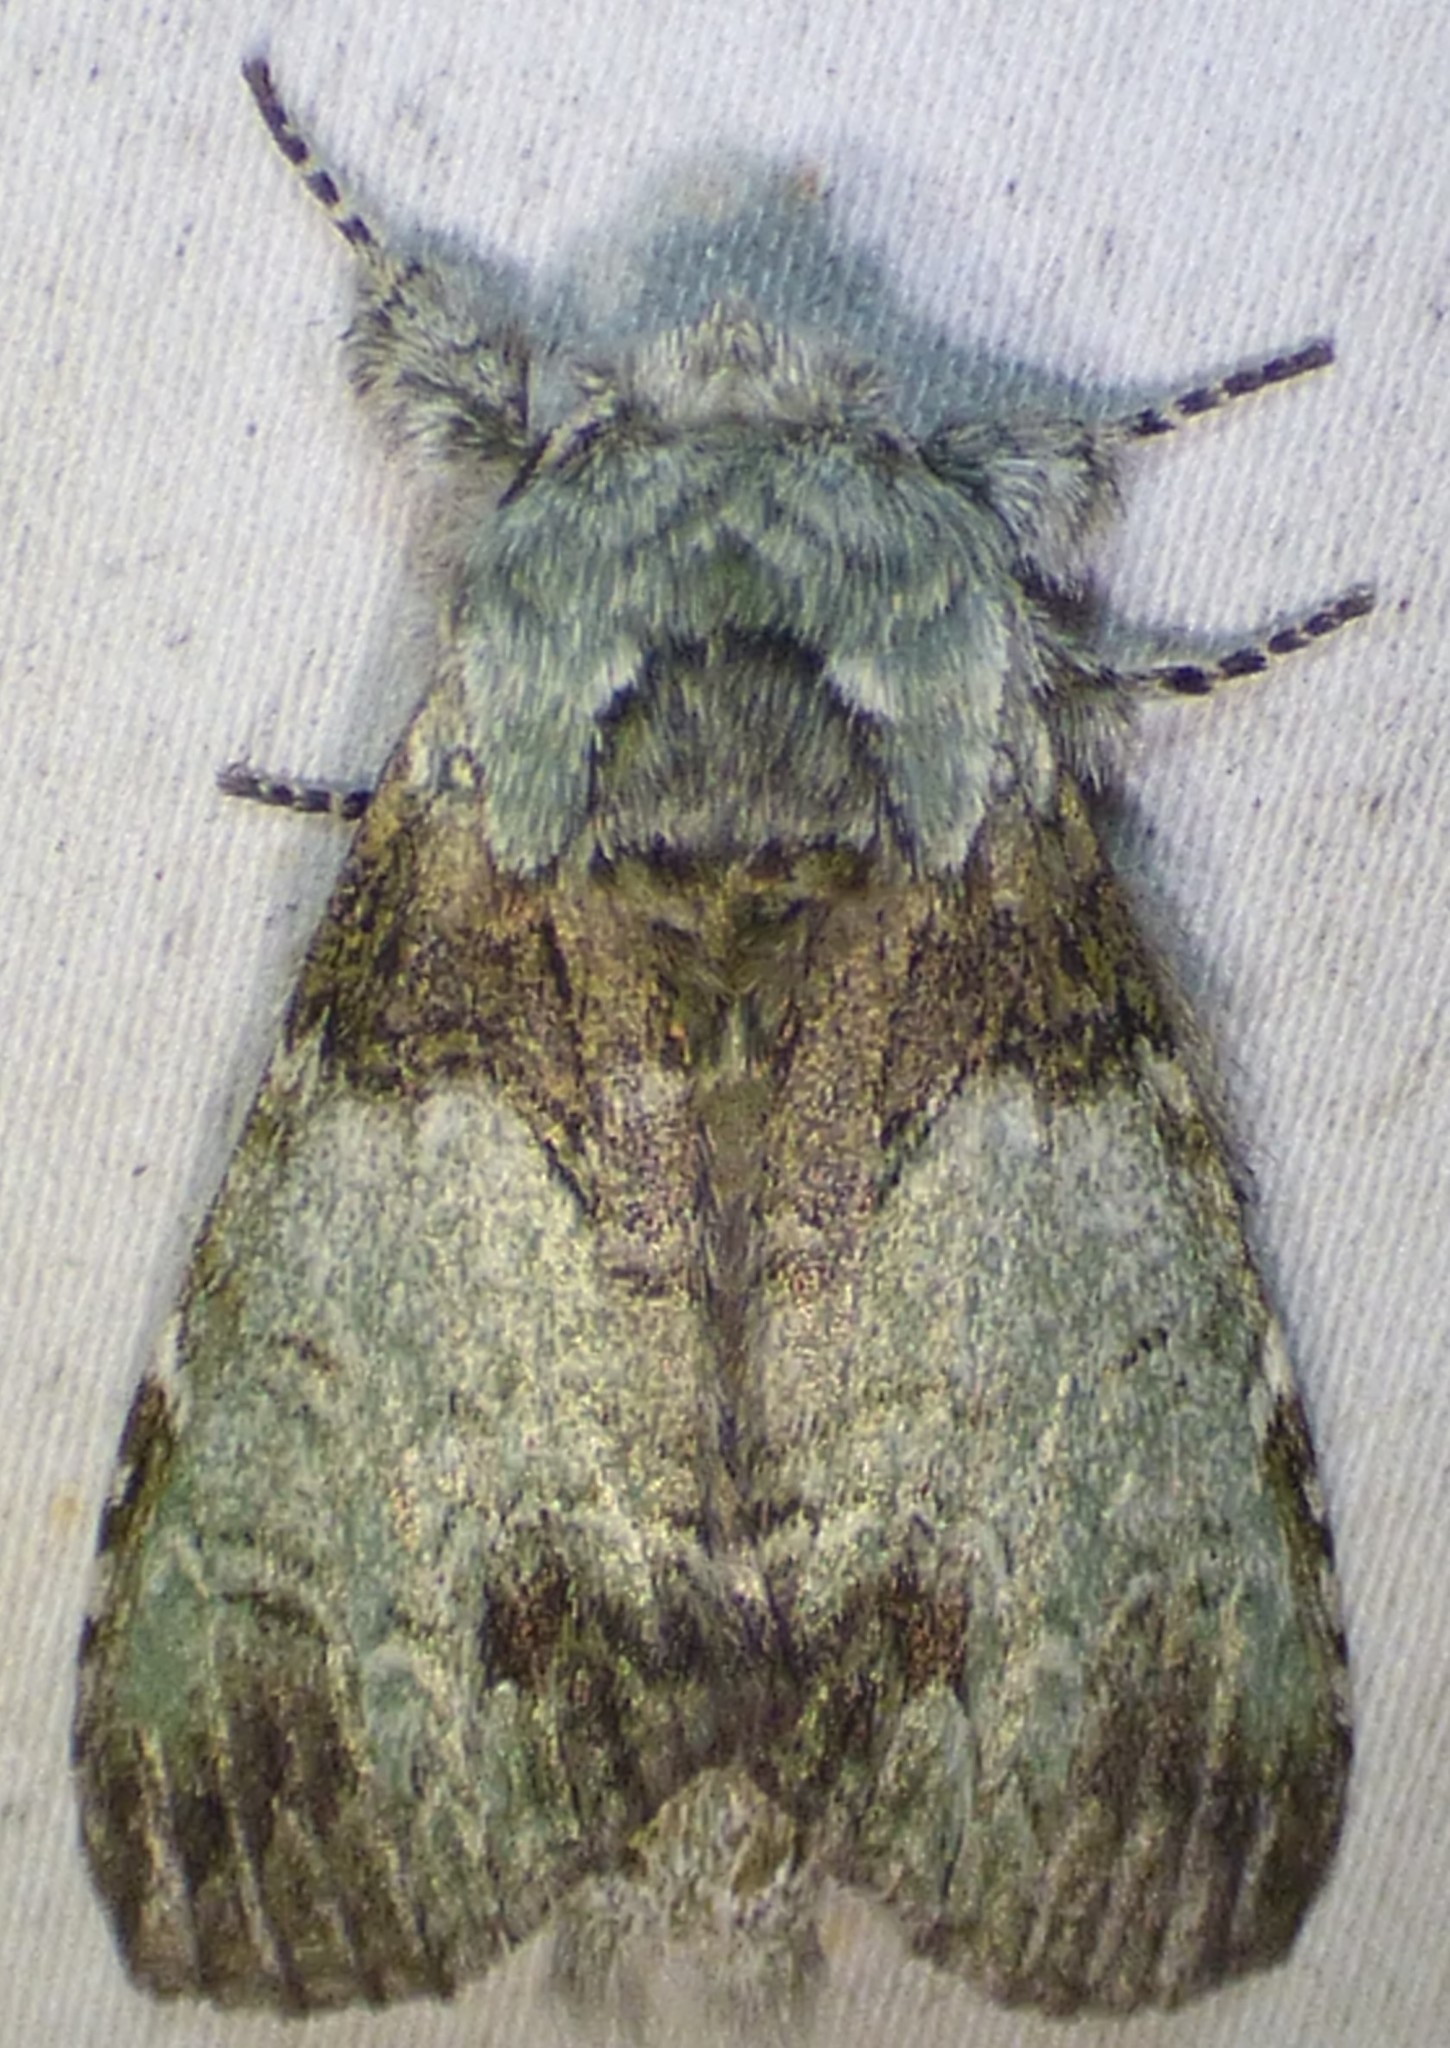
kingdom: Animalia
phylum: Arthropoda
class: Insecta
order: Lepidoptera
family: Notodontidae
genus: Macrurocampa
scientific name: Macrurocampa marthesia
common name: Mottled prominent
